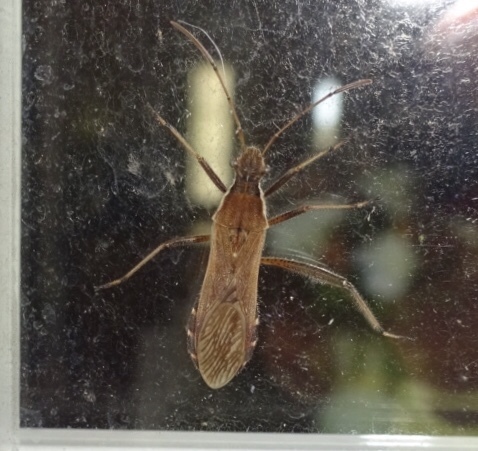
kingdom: Animalia
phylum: Arthropoda
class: Insecta
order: Hemiptera
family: Alydidae
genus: Alydus
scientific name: Alydus pilosulus
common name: Broad-headed bug
